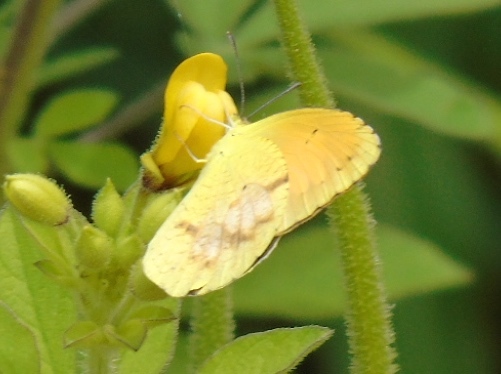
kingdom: Animalia
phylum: Arthropoda
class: Insecta
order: Lepidoptera
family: Pieridae
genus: Abaeis
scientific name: Abaeis nicippe
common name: Sleepy orange
